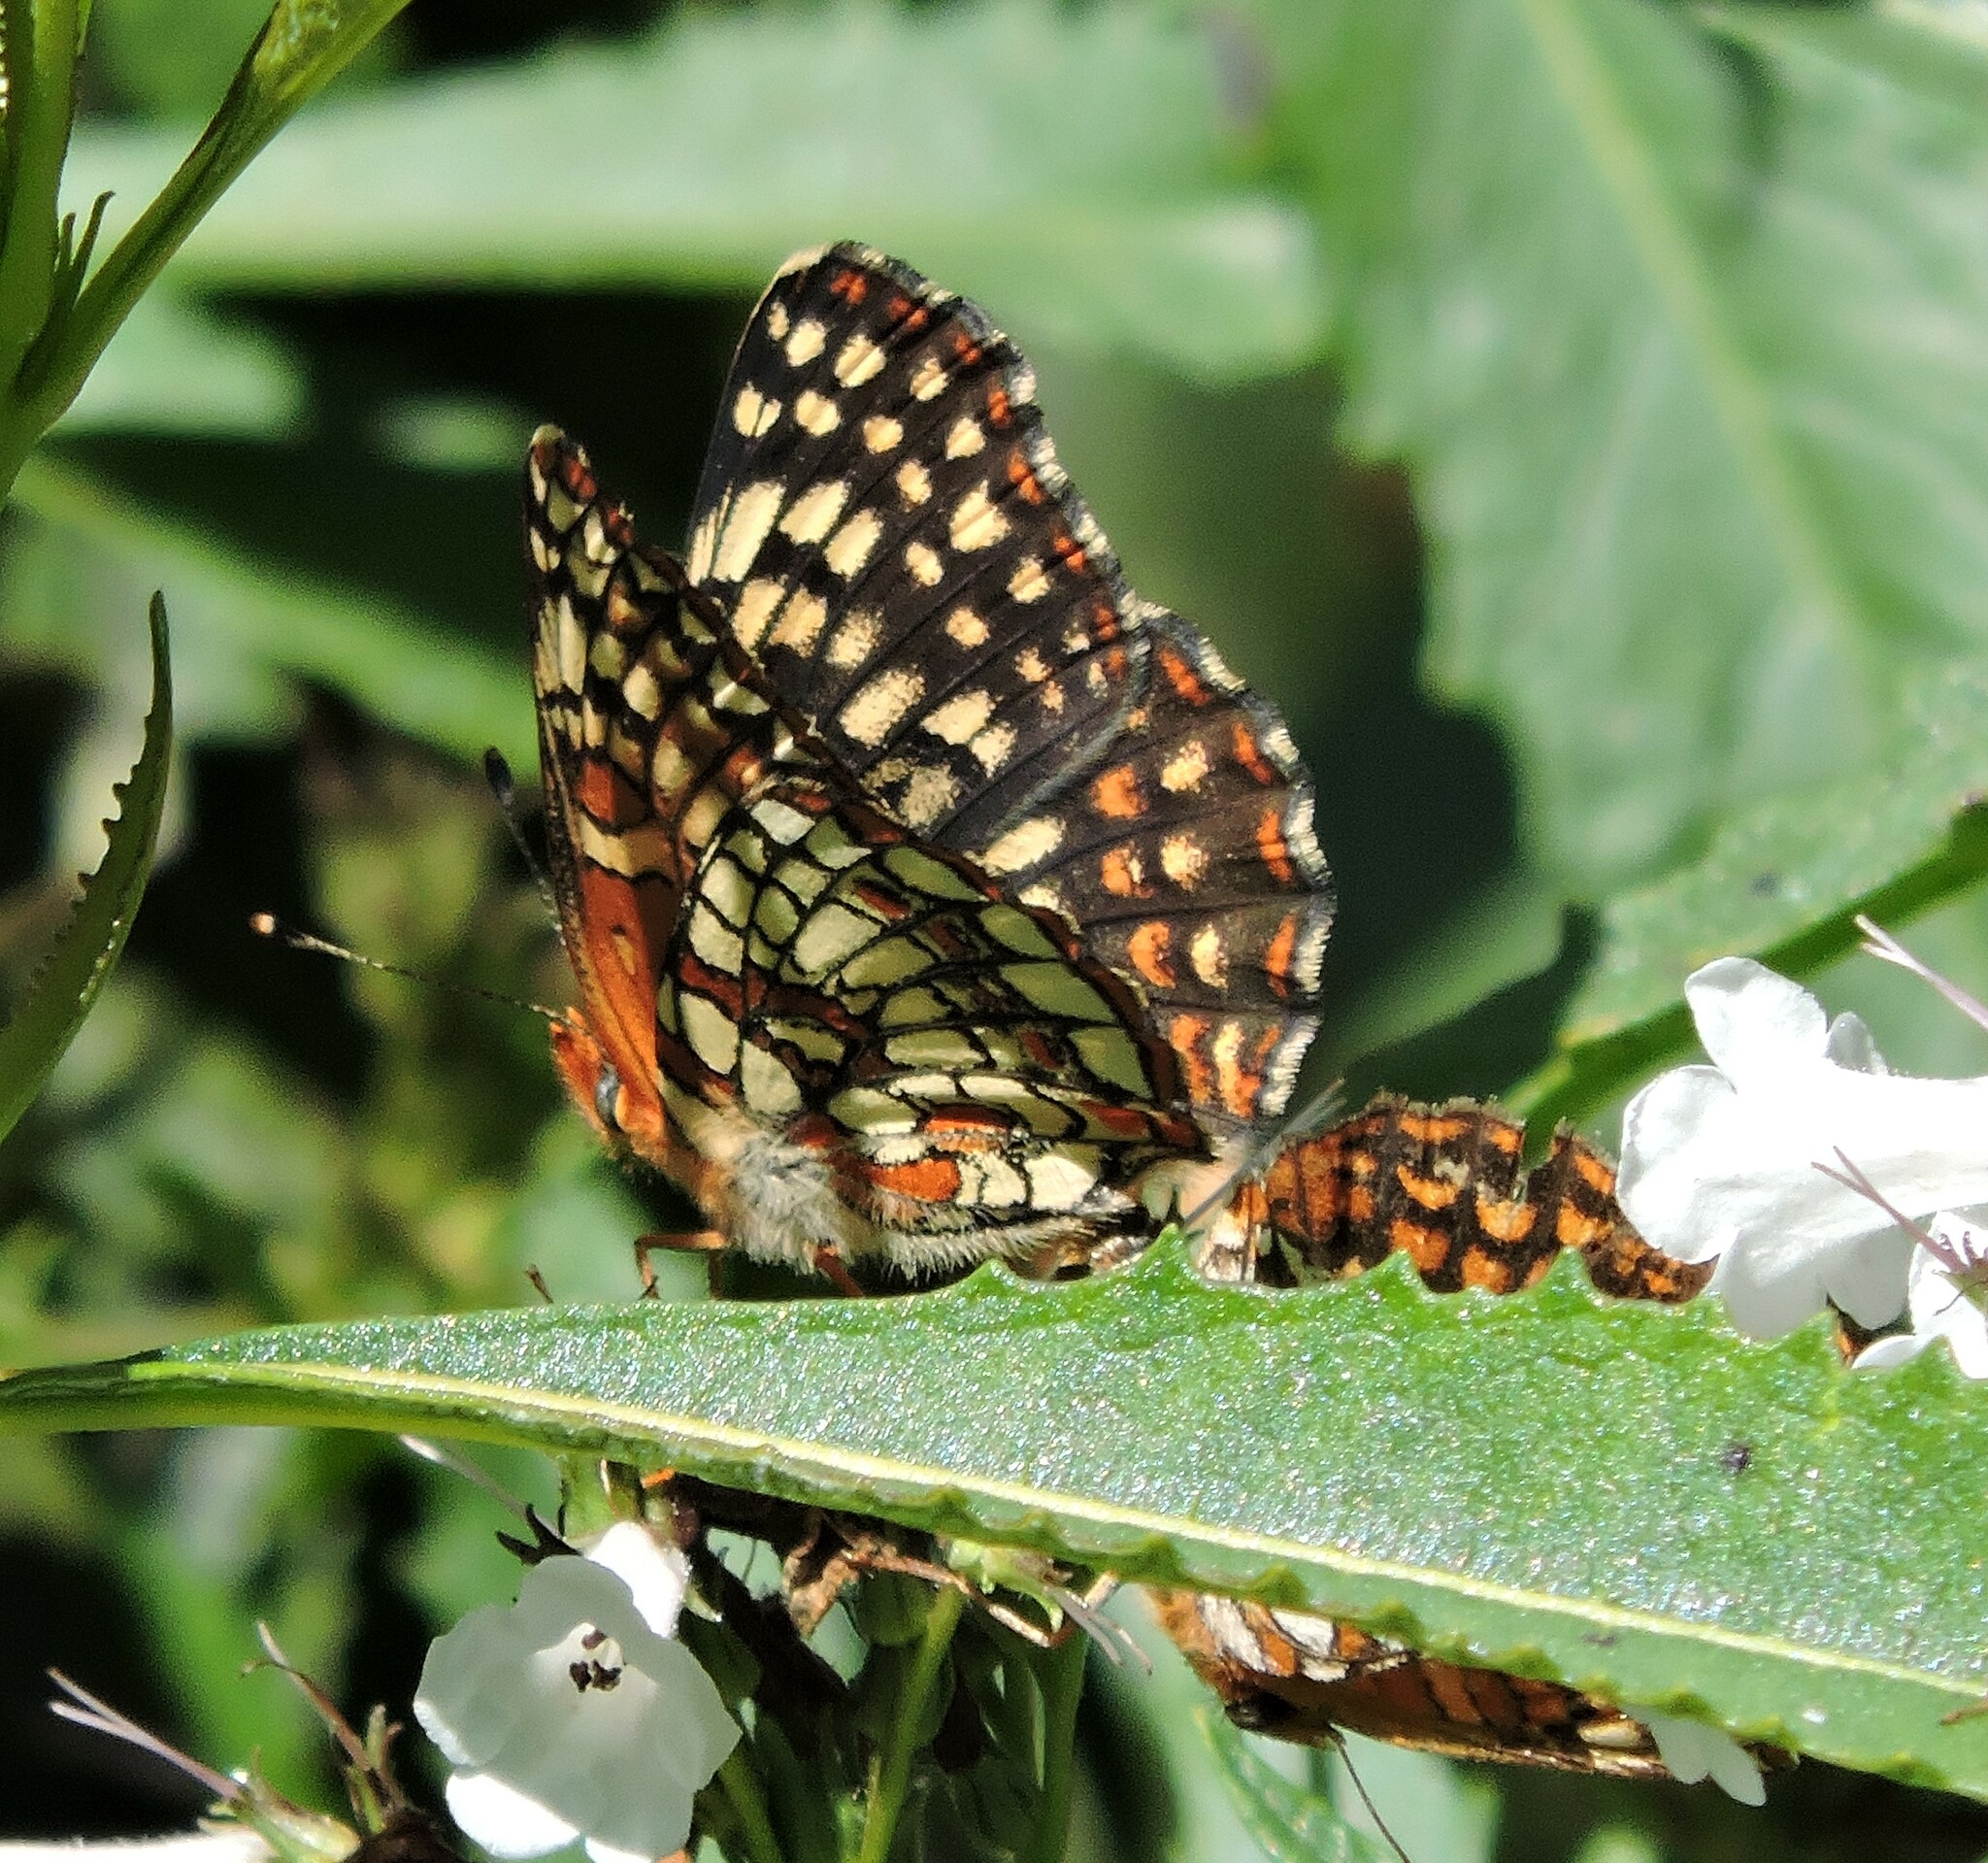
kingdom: Animalia
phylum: Arthropoda
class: Insecta
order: Lepidoptera
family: Nymphalidae
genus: Chlosyne
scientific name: Chlosyne palla
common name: Northern checkerspot
